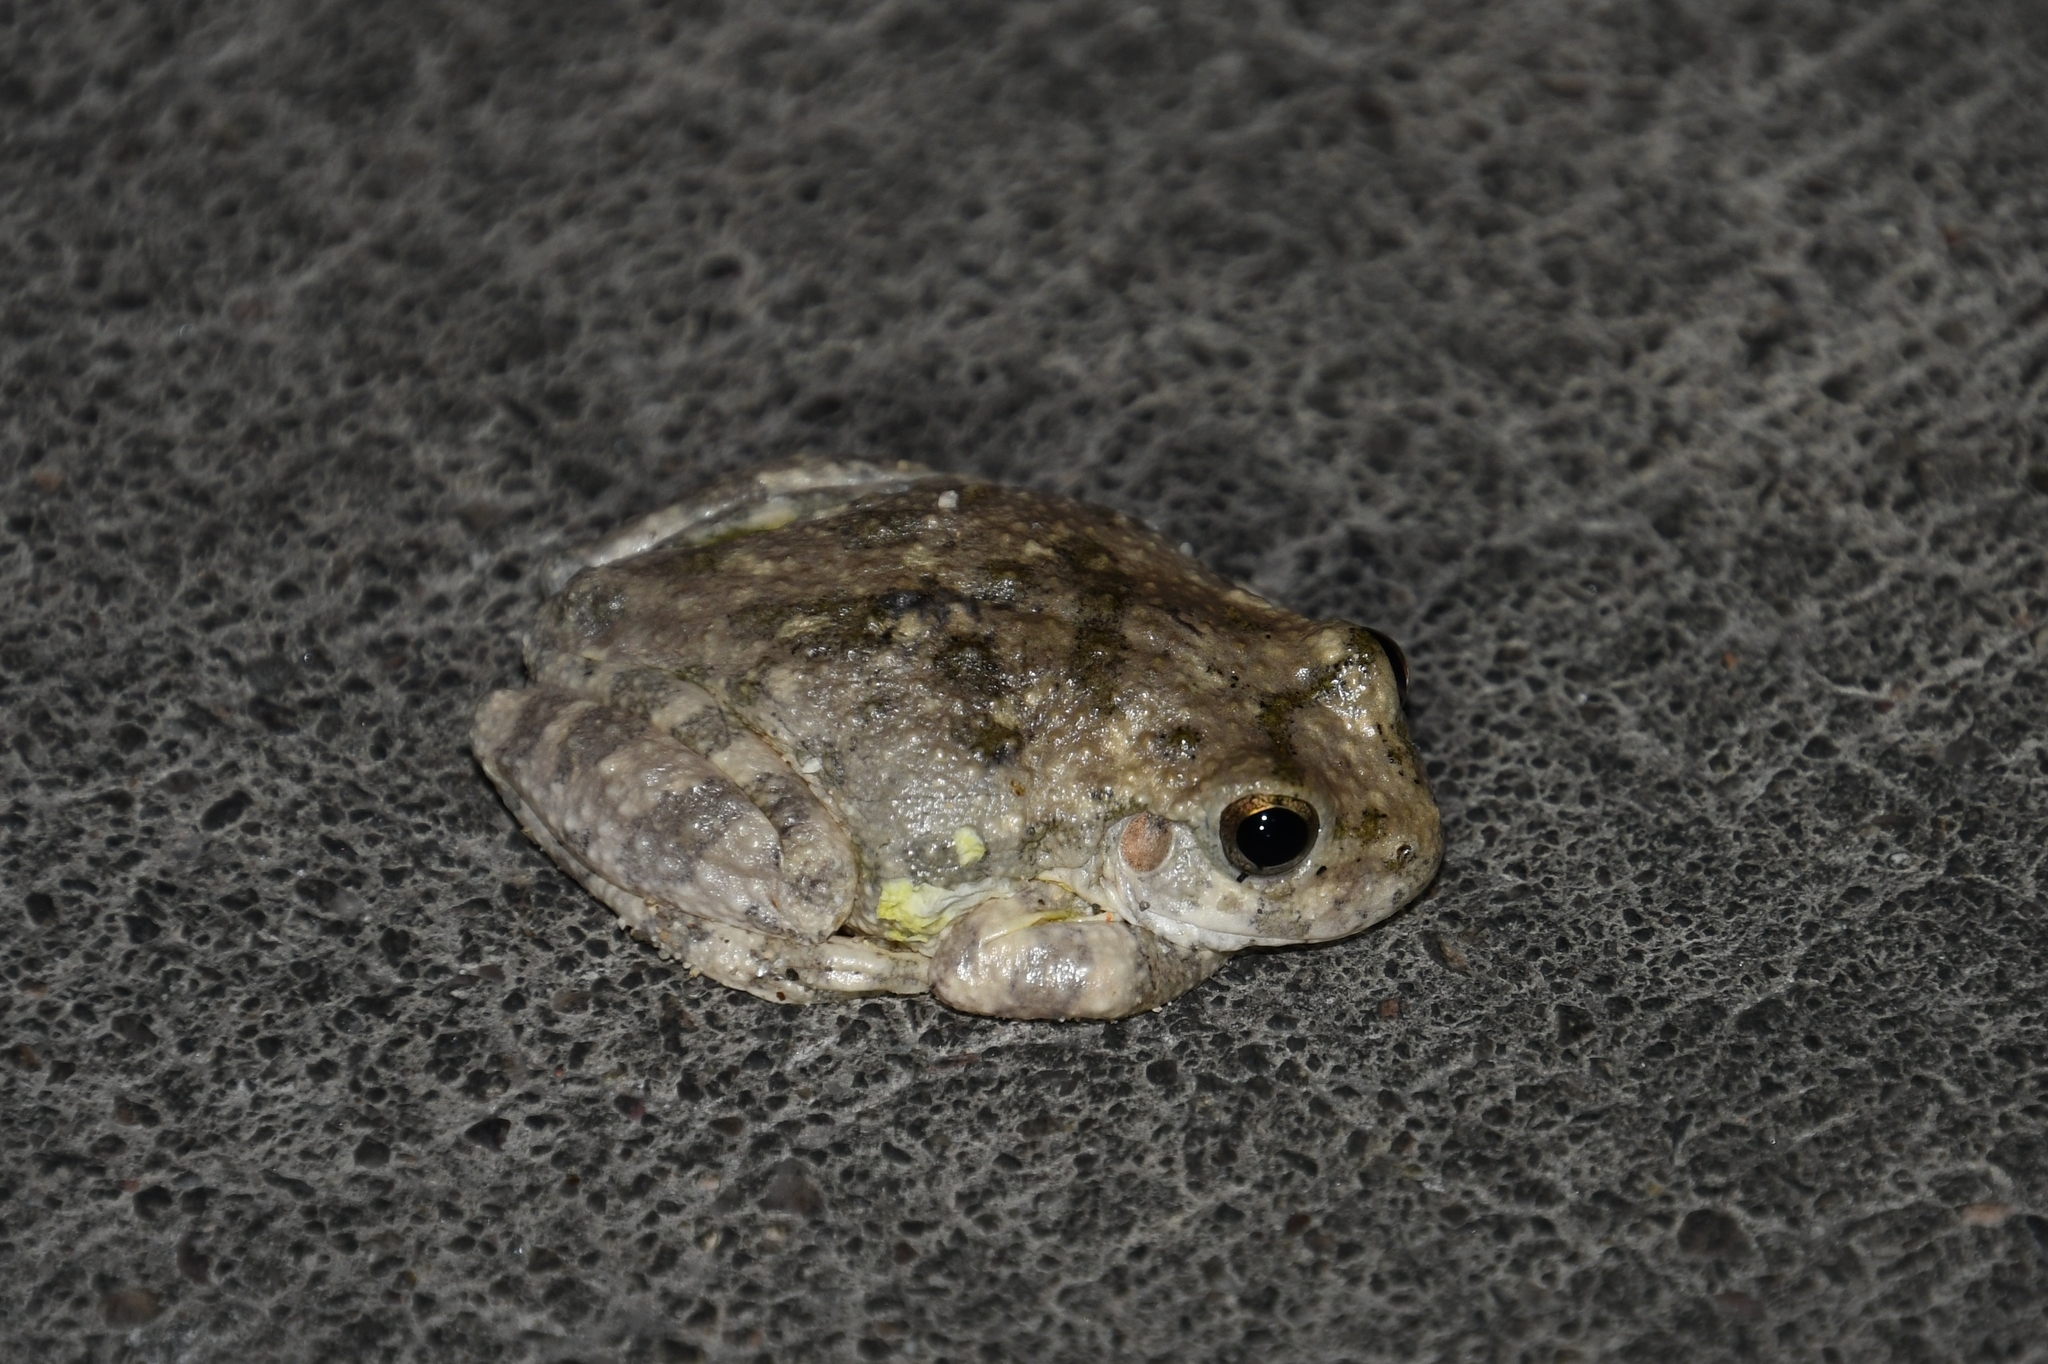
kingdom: Animalia
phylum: Chordata
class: Amphibia
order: Anura
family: Hylidae
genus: Dryophytes
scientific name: Dryophytes arenicolor
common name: Canyon treefrog
